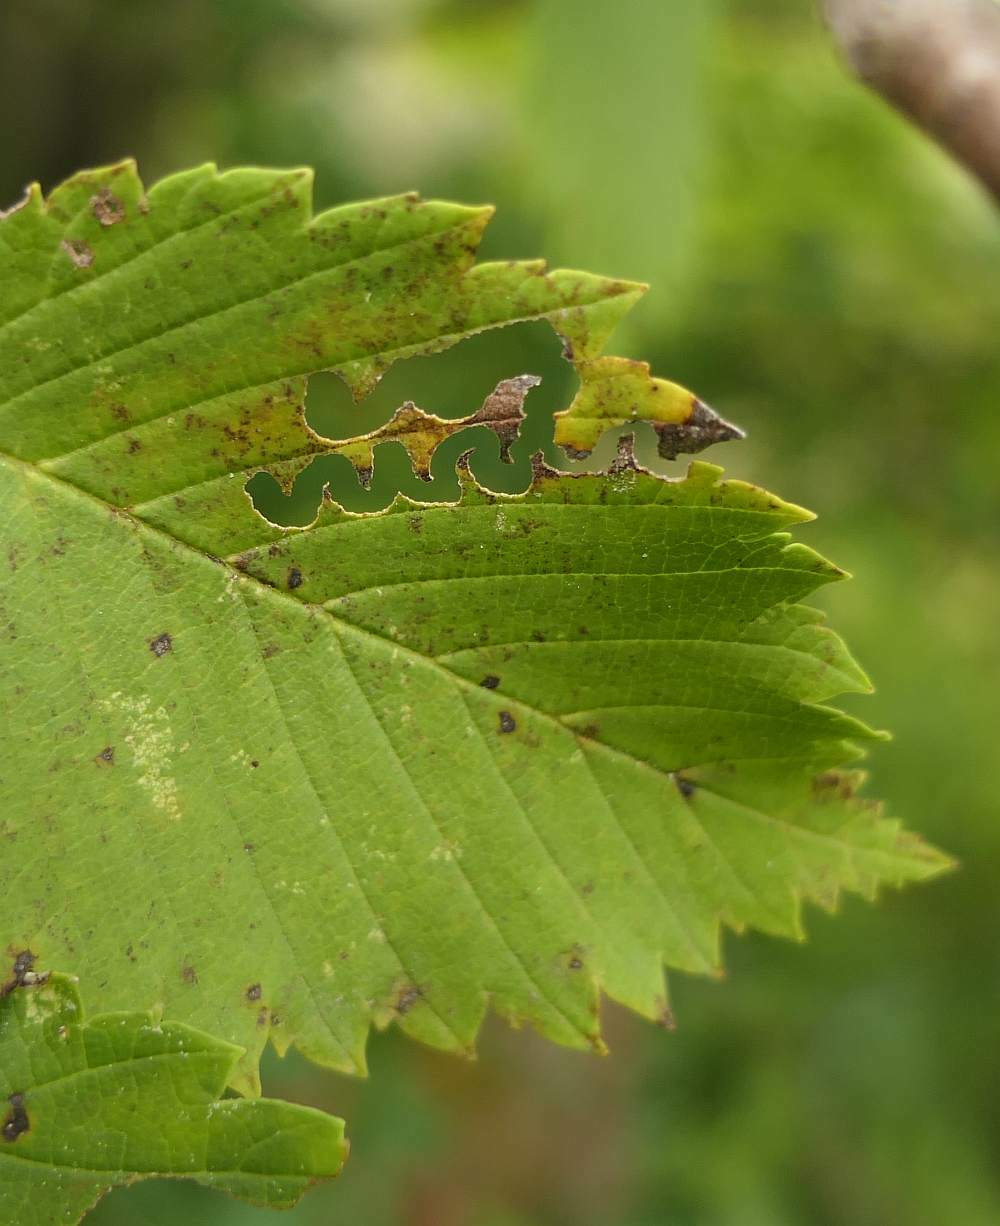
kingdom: Animalia
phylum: Arthropoda
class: Insecta
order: Hymenoptera
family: Argidae
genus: Aproceros
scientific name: Aproceros leucopoda
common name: Zig-zag elm sawfly
